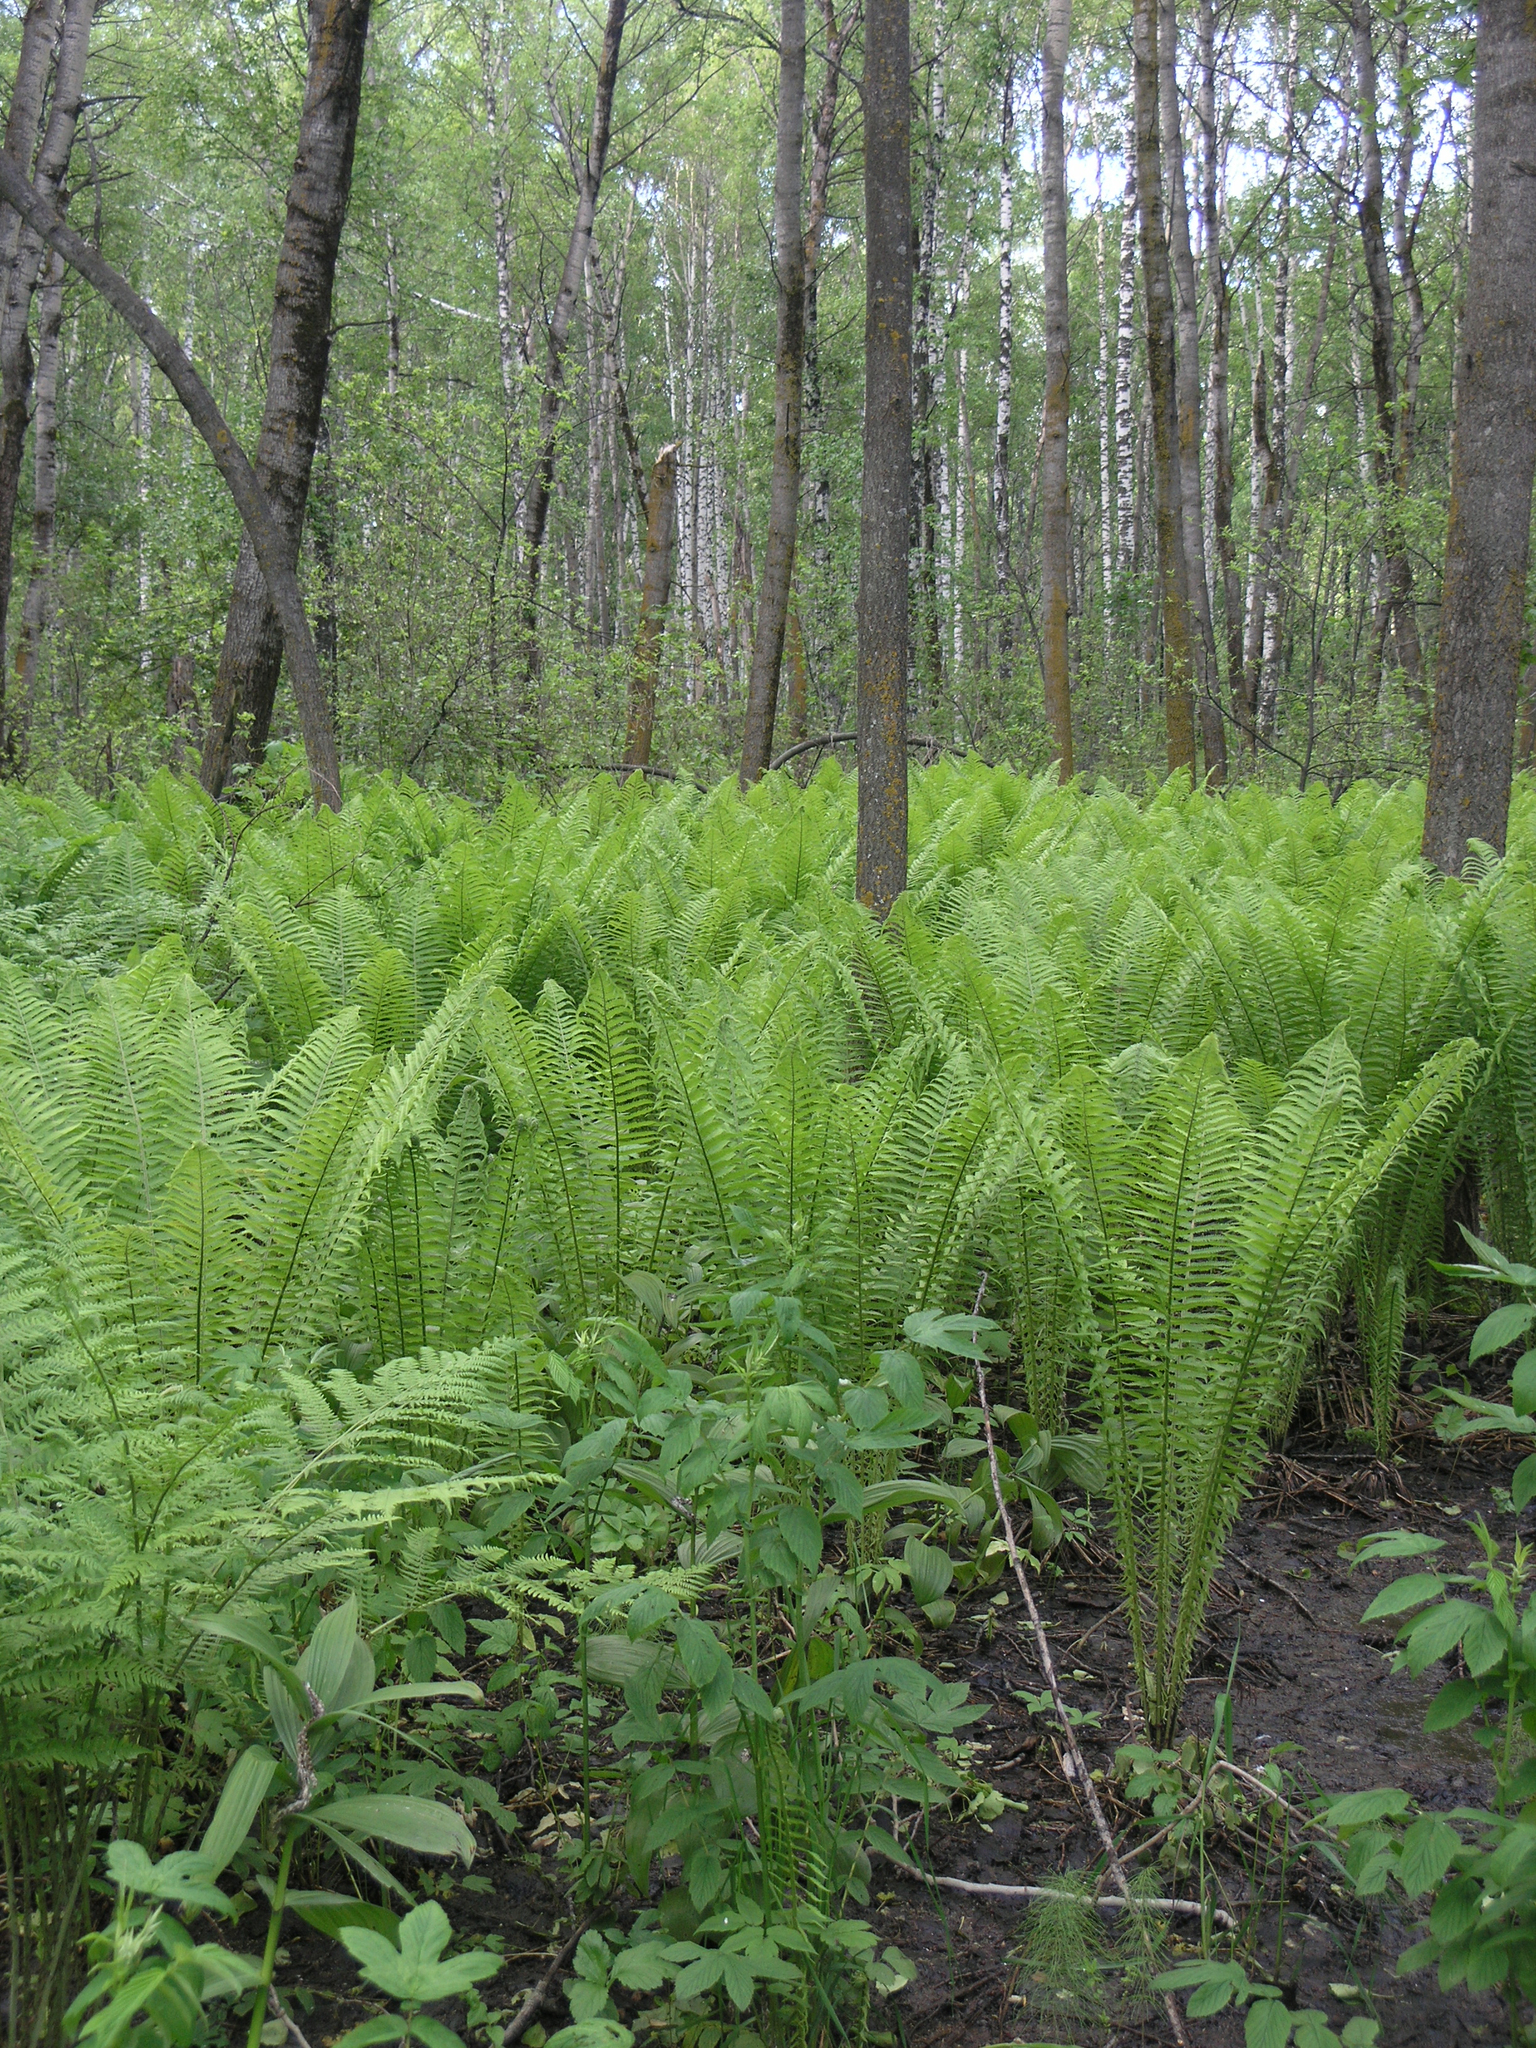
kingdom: Plantae
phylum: Tracheophyta
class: Polypodiopsida
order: Polypodiales
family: Onocleaceae
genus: Matteuccia
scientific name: Matteuccia struthiopteris
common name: Ostrich fern
